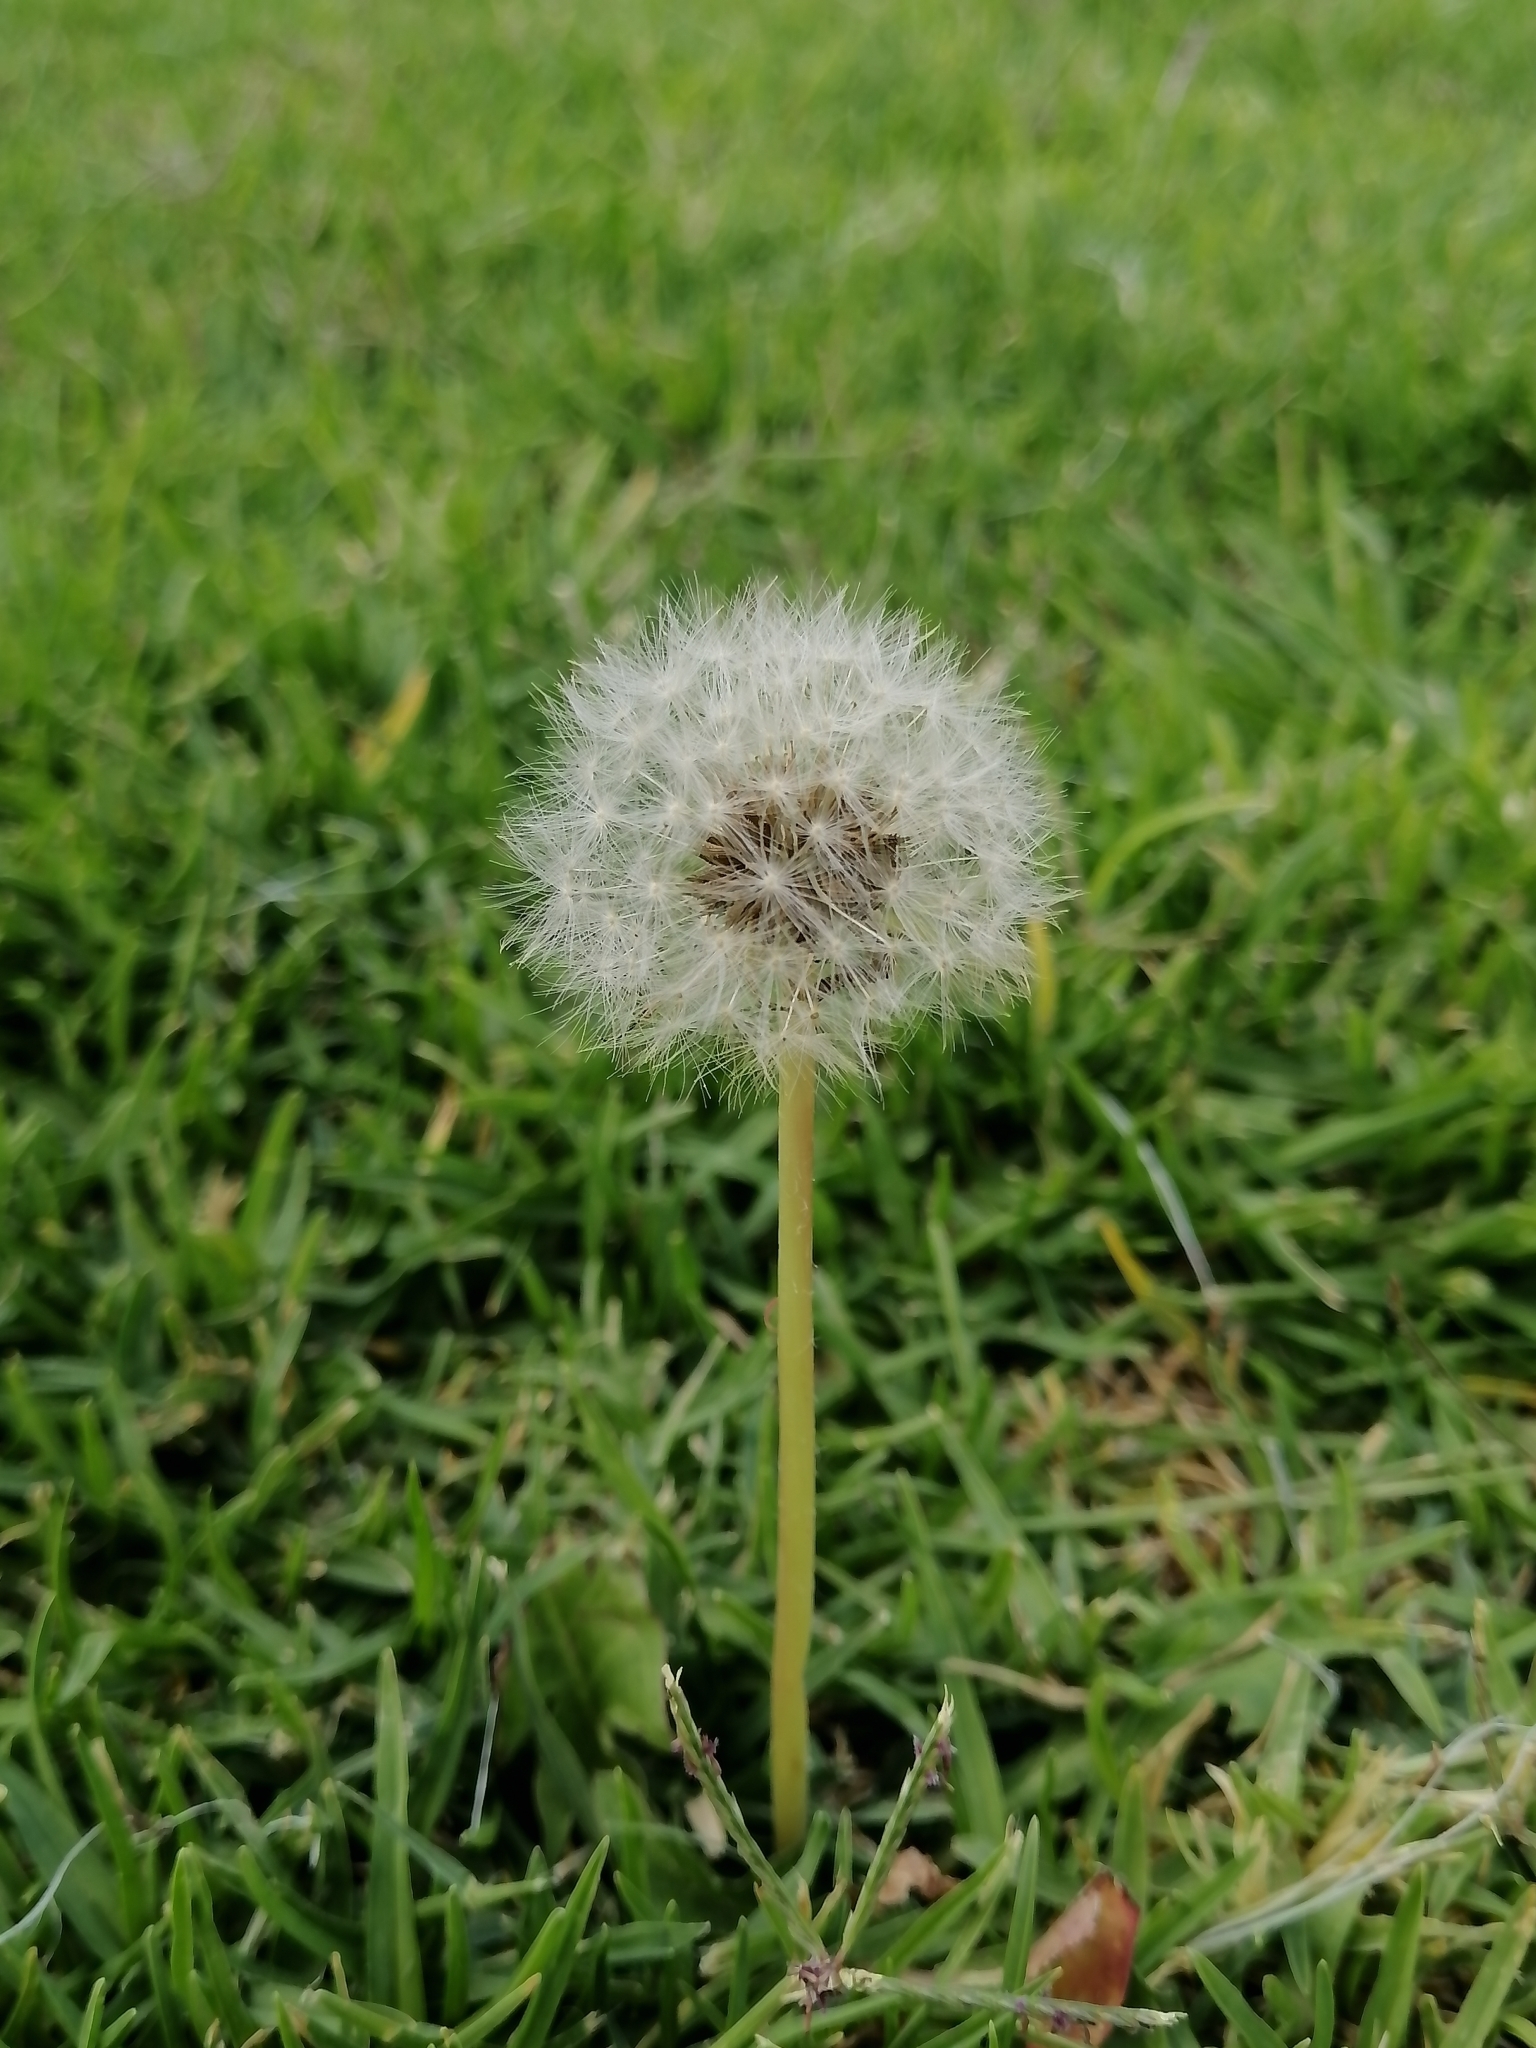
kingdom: Plantae
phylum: Tracheophyta
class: Magnoliopsida
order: Asterales
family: Asteraceae
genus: Taraxacum
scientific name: Taraxacum officinale
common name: Common dandelion
